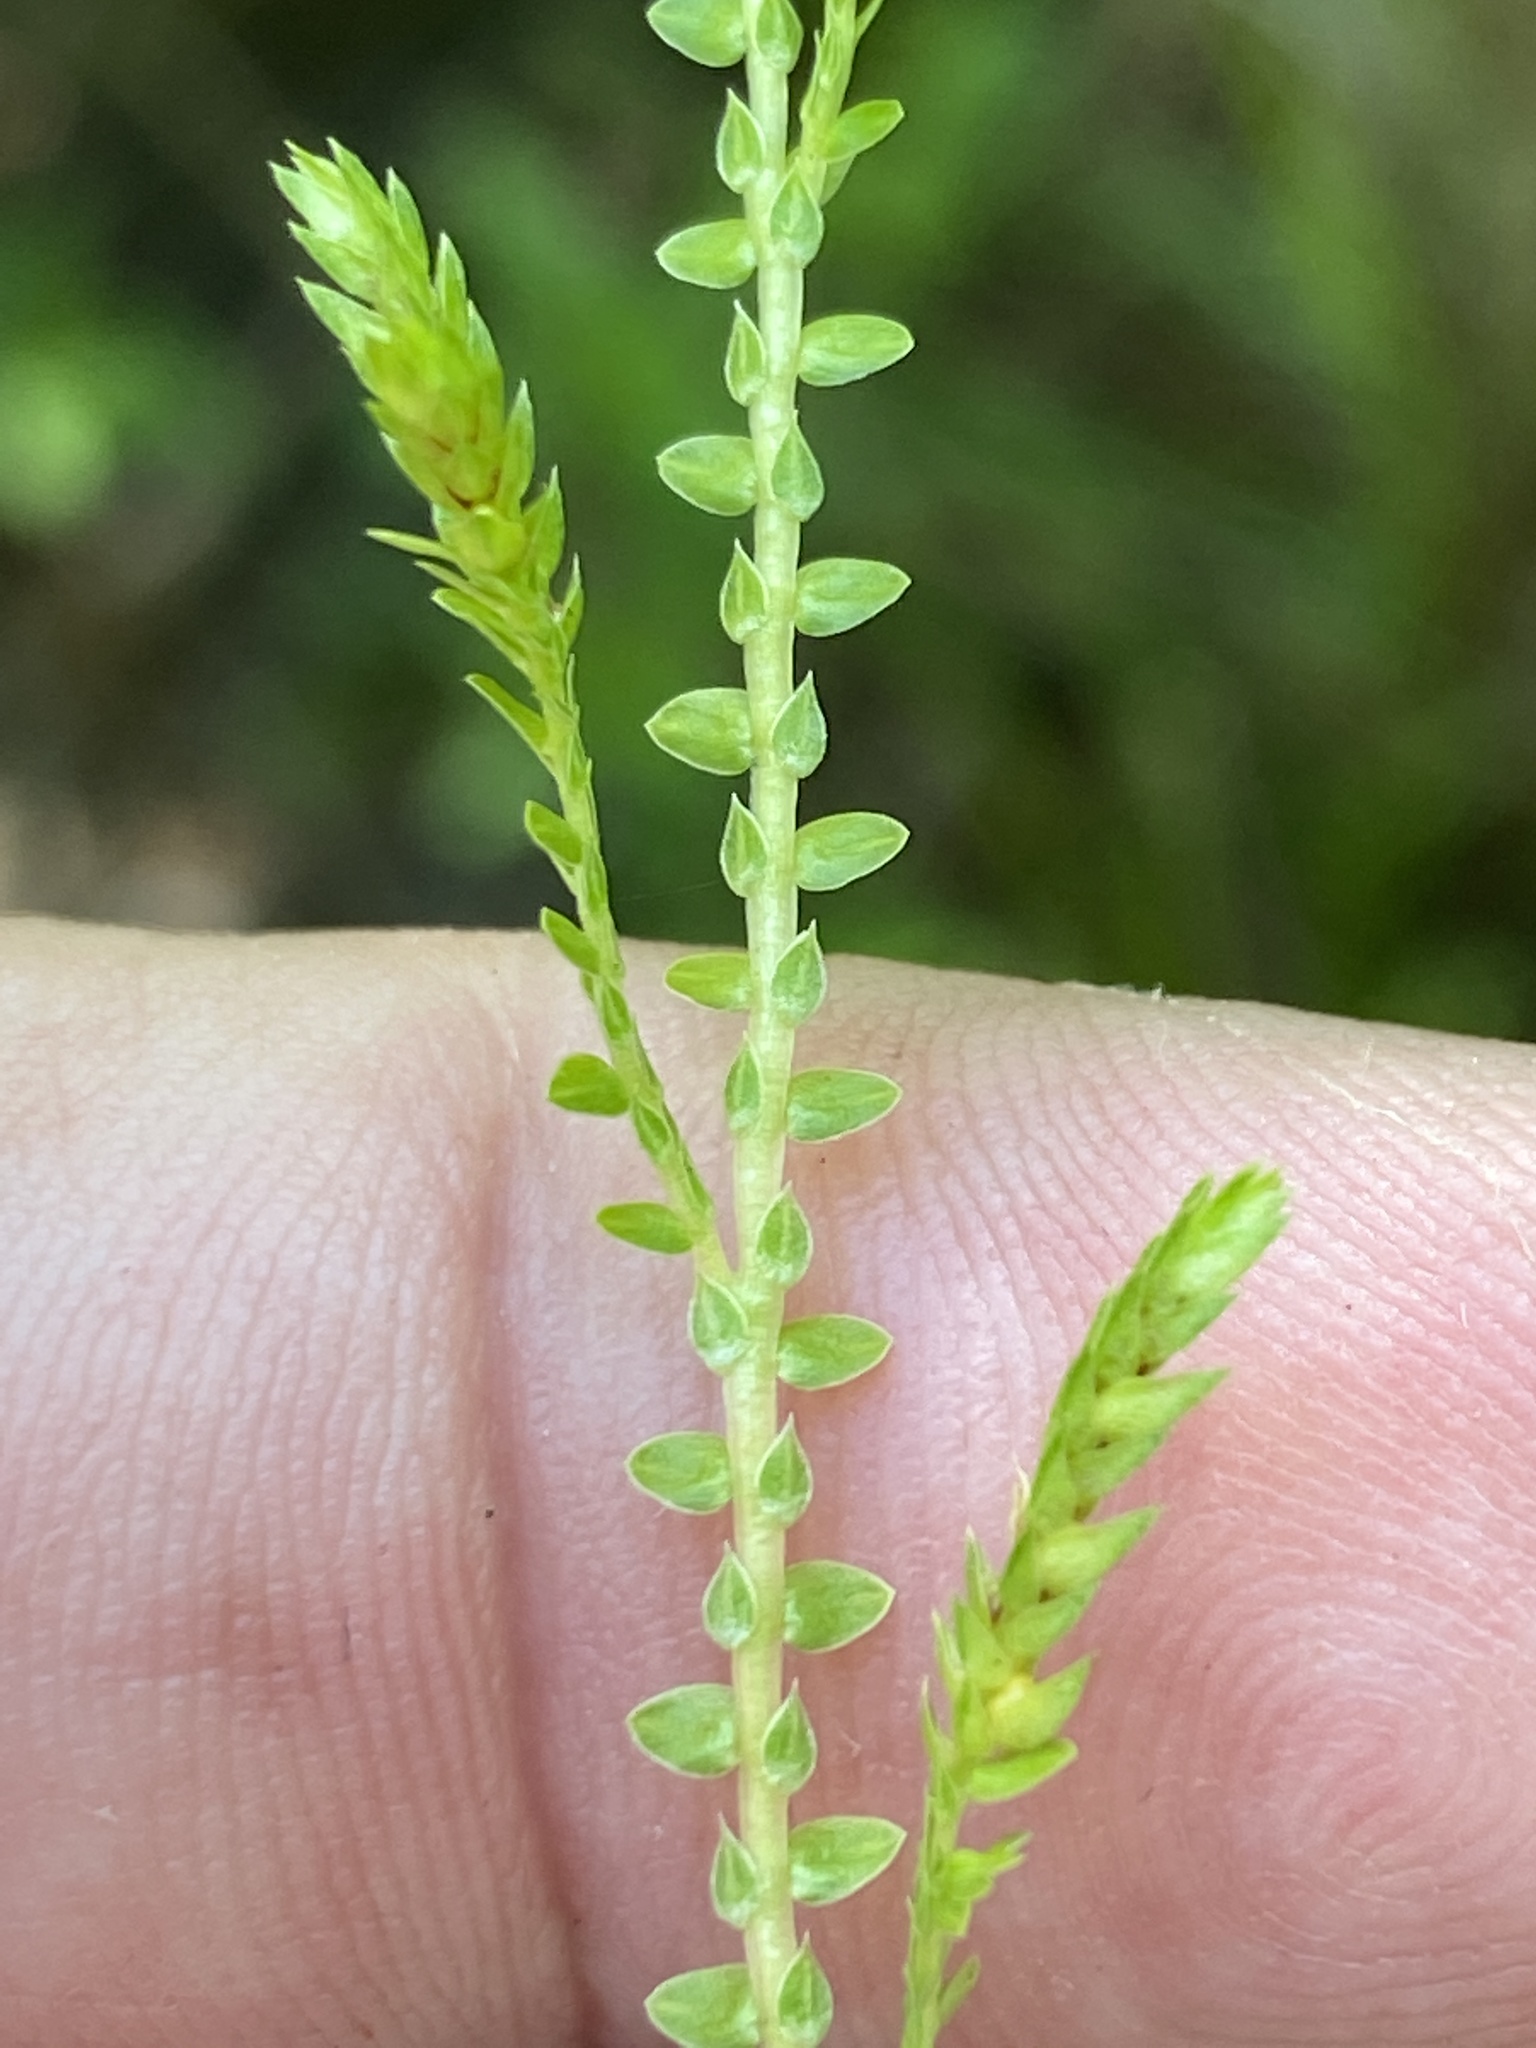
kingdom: Plantae
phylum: Tracheophyta
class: Lycopodiopsida
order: Selaginellales
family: Selaginellaceae
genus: Selaginella
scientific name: Selaginella ludoviciana
